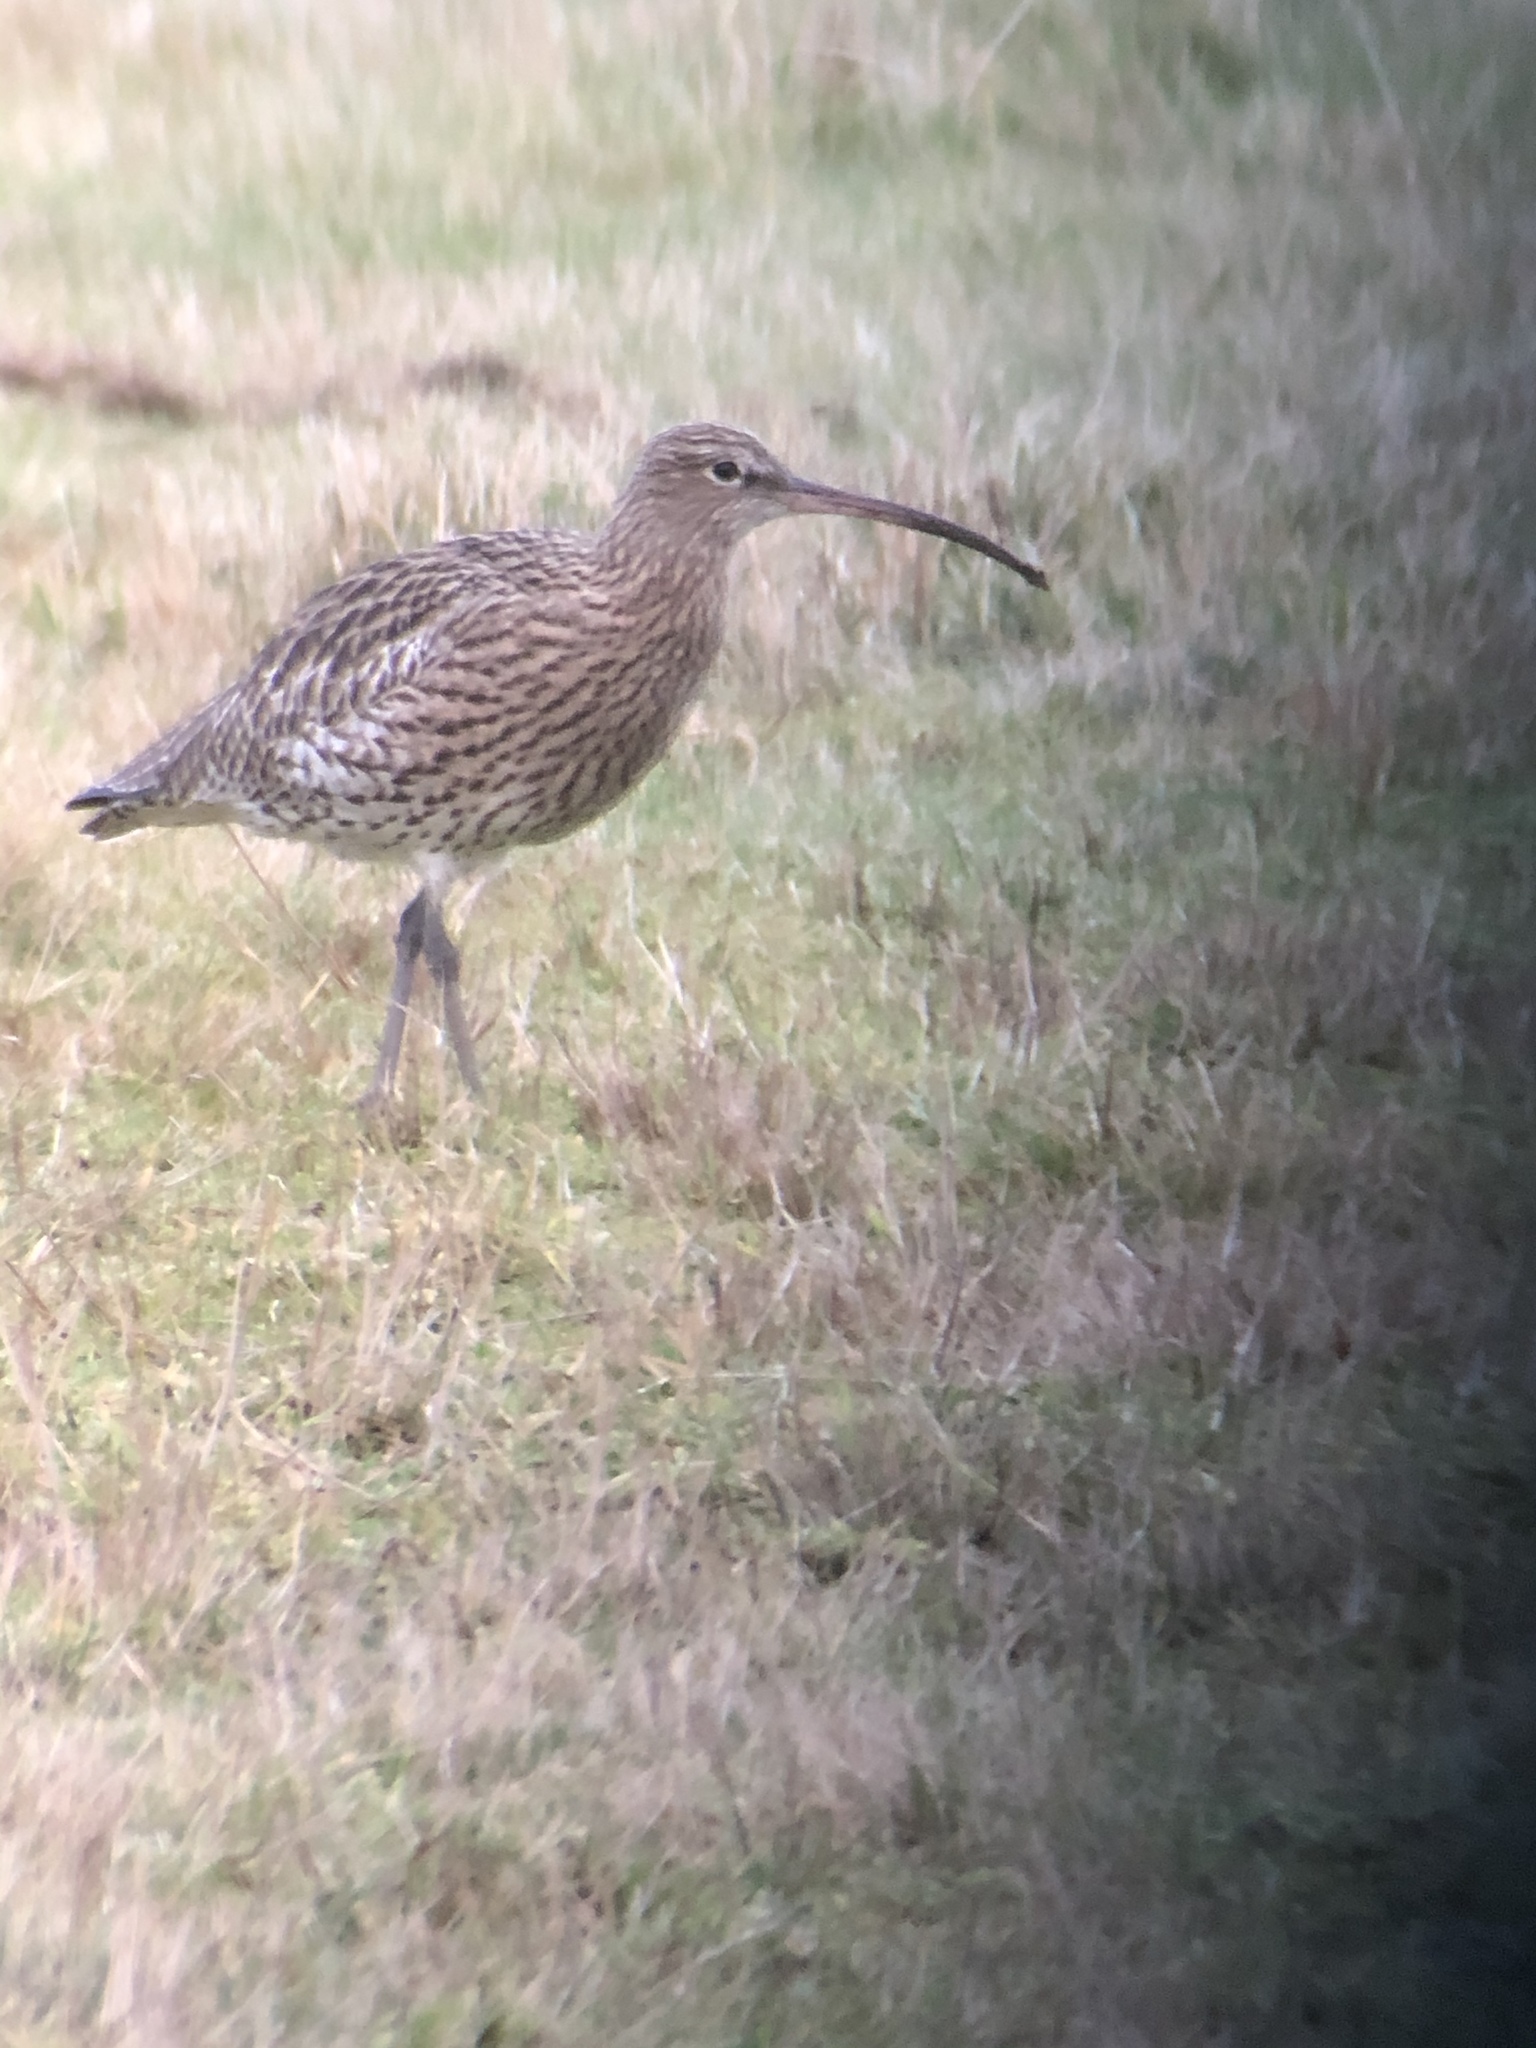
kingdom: Animalia
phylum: Chordata
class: Aves
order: Charadriiformes
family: Scolopacidae
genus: Numenius
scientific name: Numenius arquata
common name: Eurasian curlew
